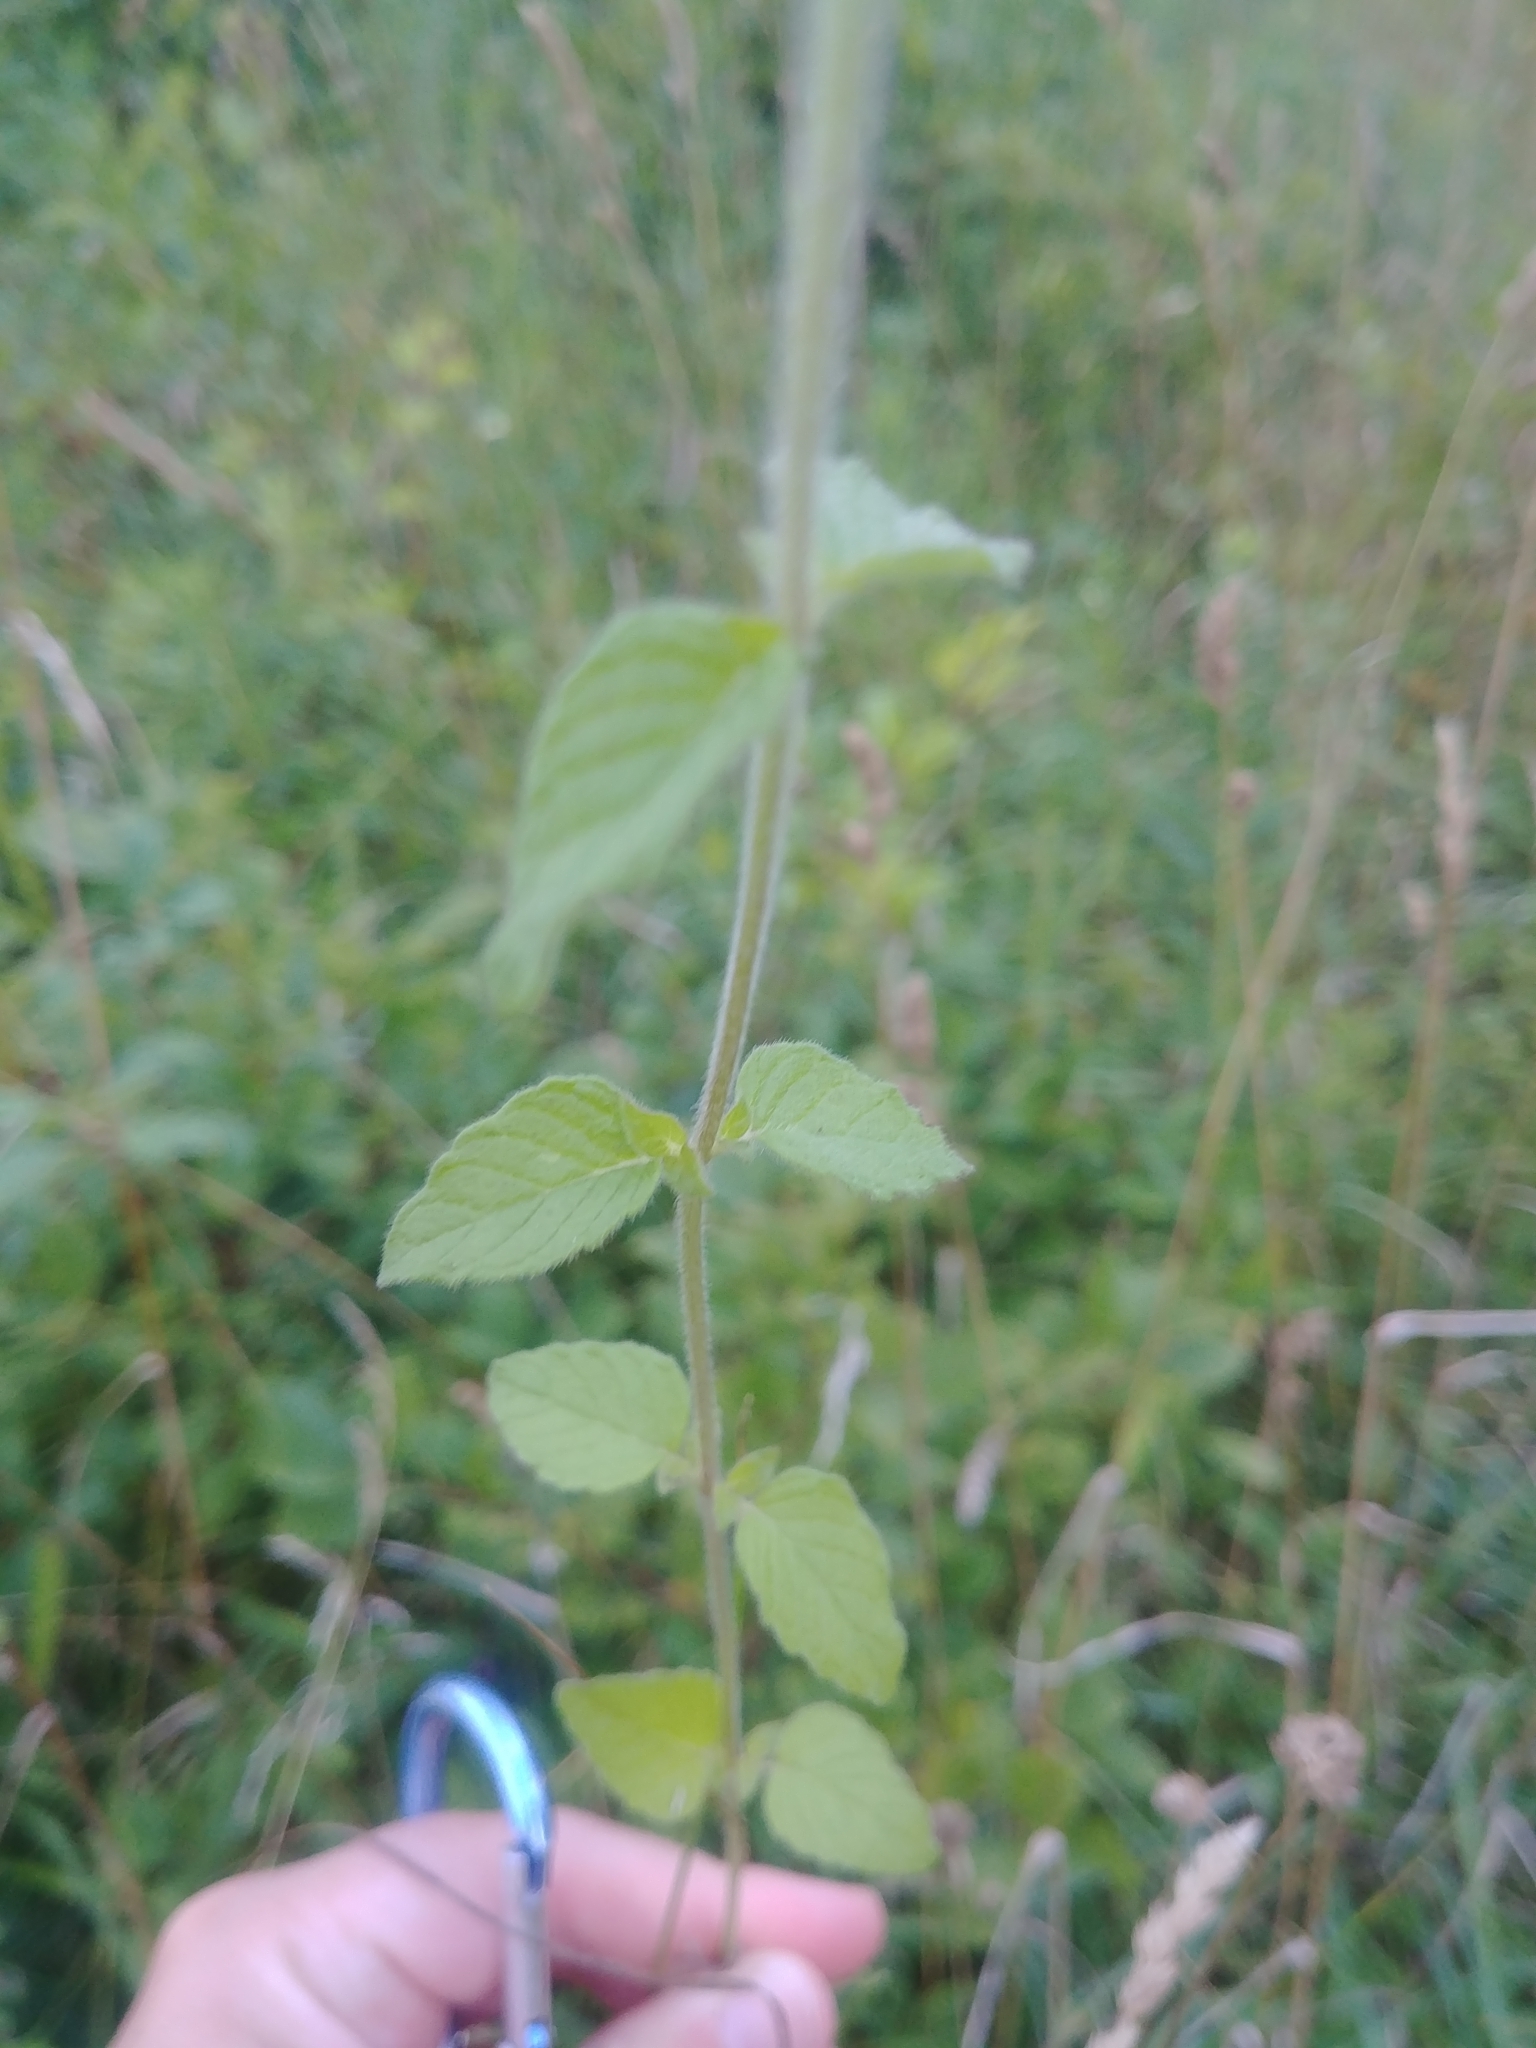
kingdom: Plantae
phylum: Tracheophyta
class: Magnoliopsida
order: Lamiales
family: Lamiaceae
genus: Clinopodium
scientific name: Clinopodium vulgare
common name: Wild basil
